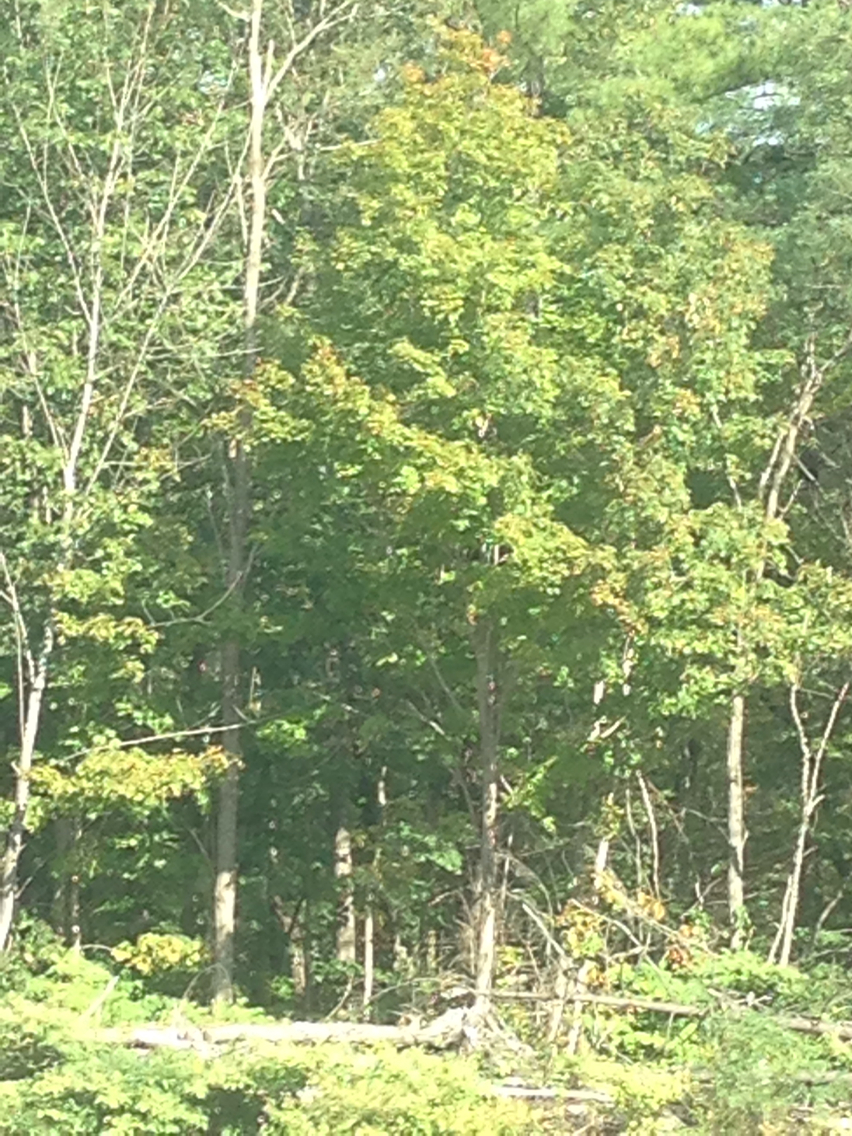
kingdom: Plantae
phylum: Tracheophyta
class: Magnoliopsida
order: Sapindales
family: Sapindaceae
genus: Acer
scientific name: Acer saccharum
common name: Sugar maple
